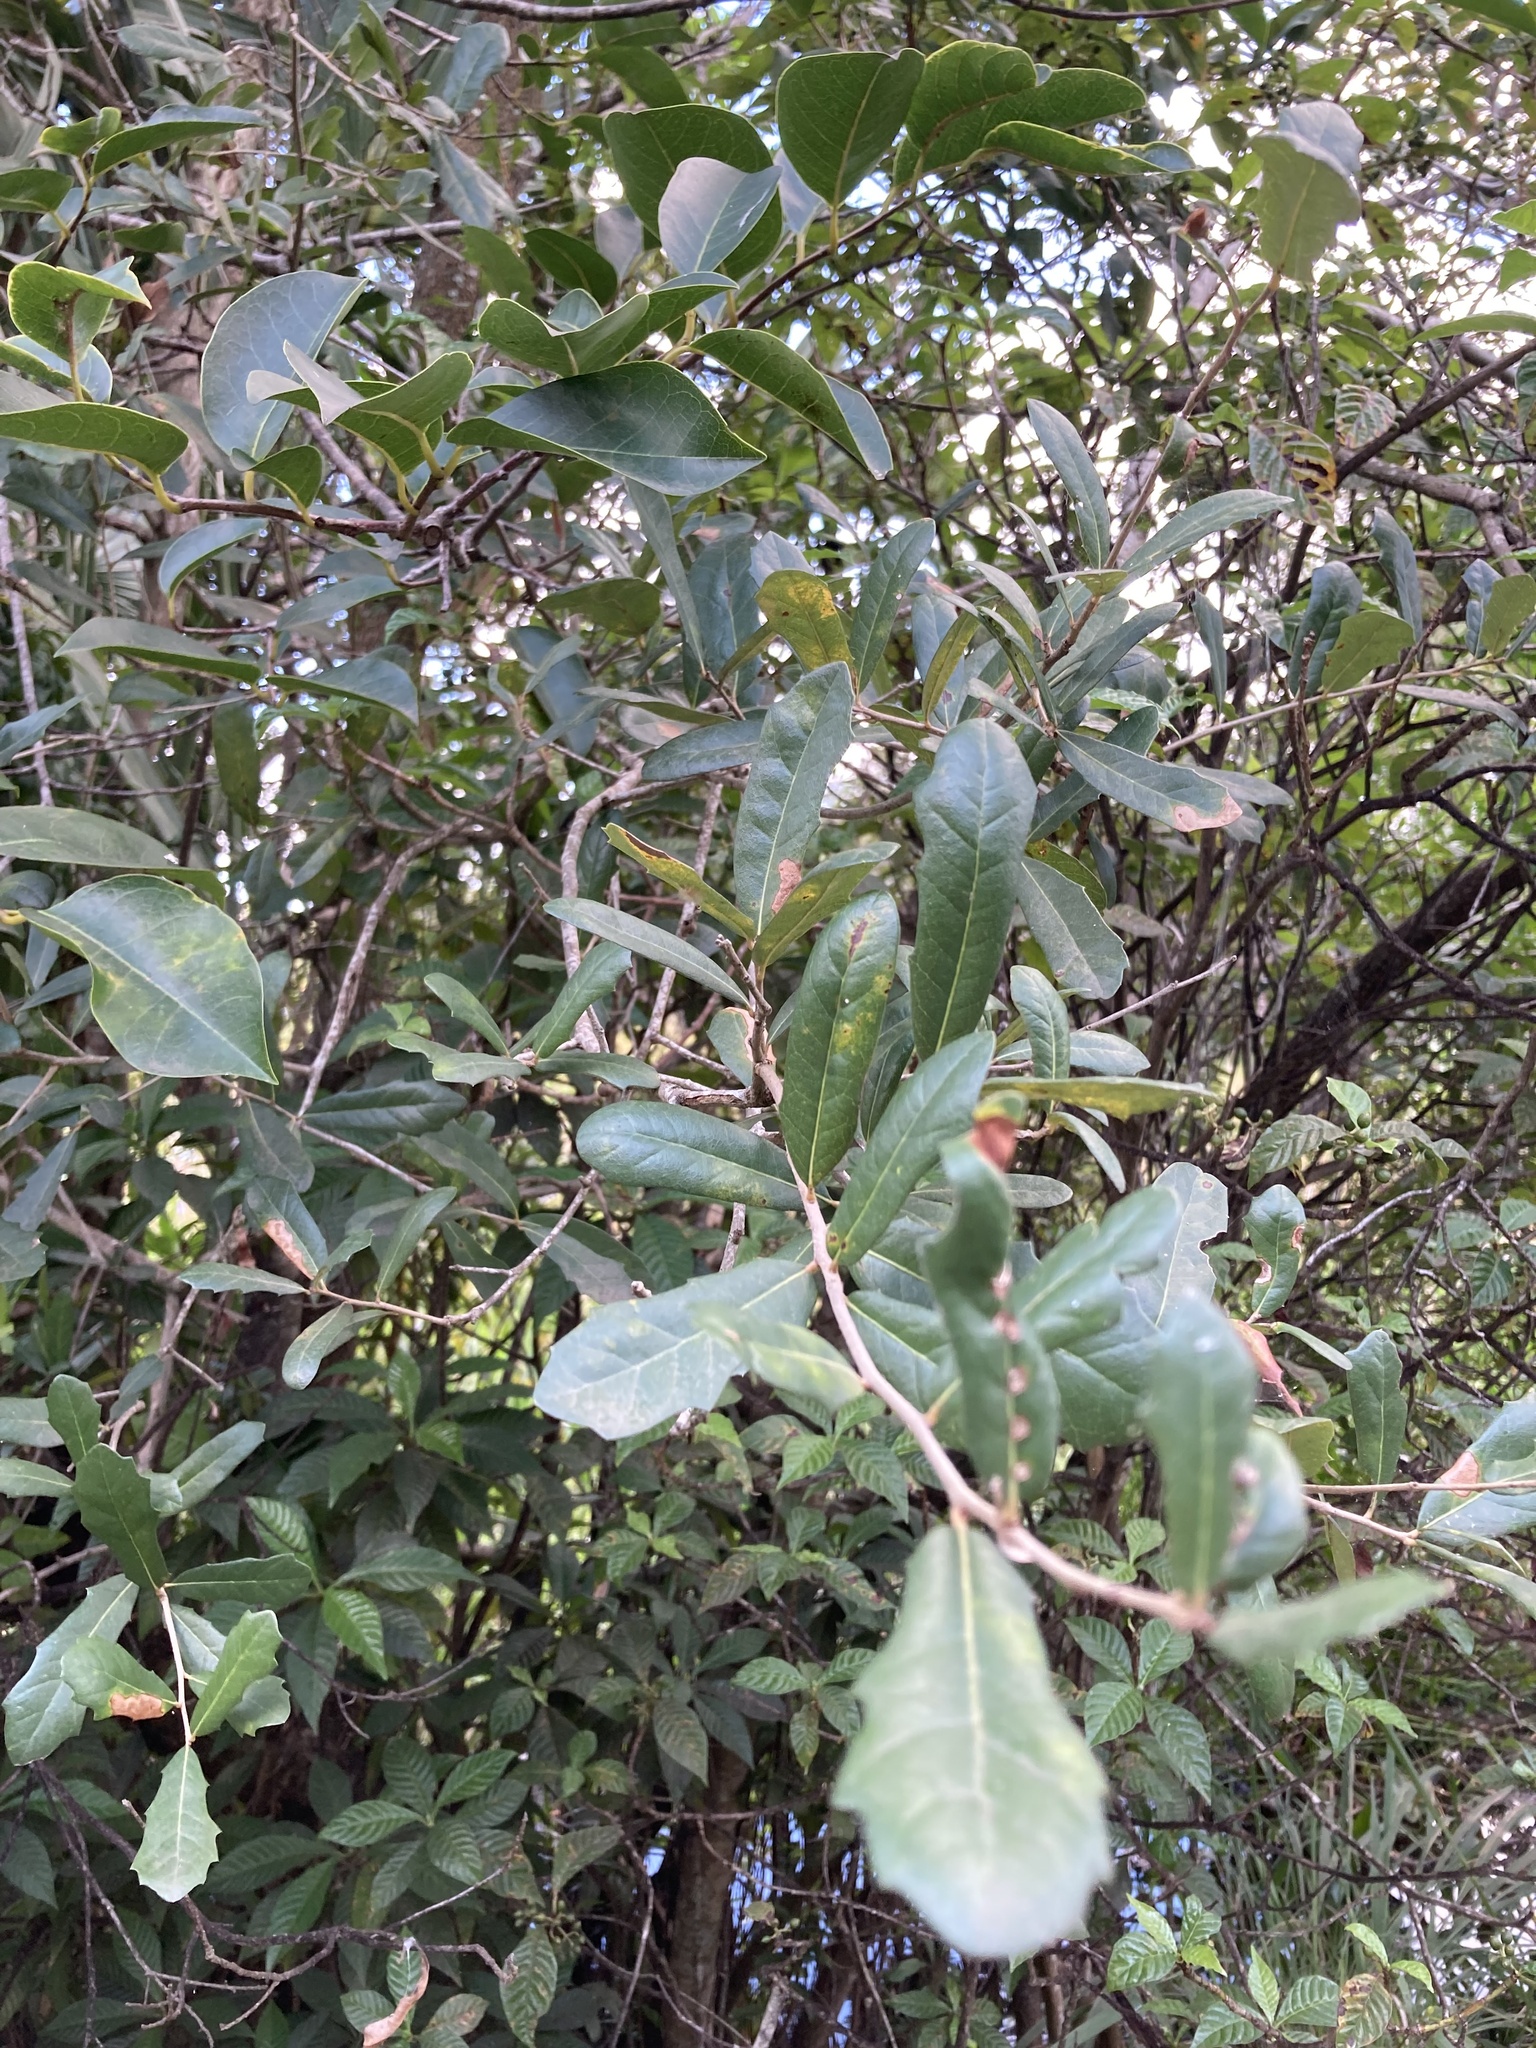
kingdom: Plantae
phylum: Tracheophyta
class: Magnoliopsida
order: Fagales
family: Fagaceae
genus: Quercus
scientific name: Quercus virginiana
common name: Southern live oak
